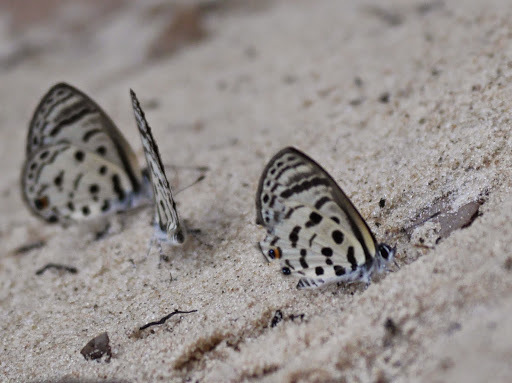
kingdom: Animalia
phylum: Arthropoda
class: Insecta
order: Lepidoptera
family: Lycaenidae
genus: Azanus
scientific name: Azanus mirza
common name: Mirza babul blue
